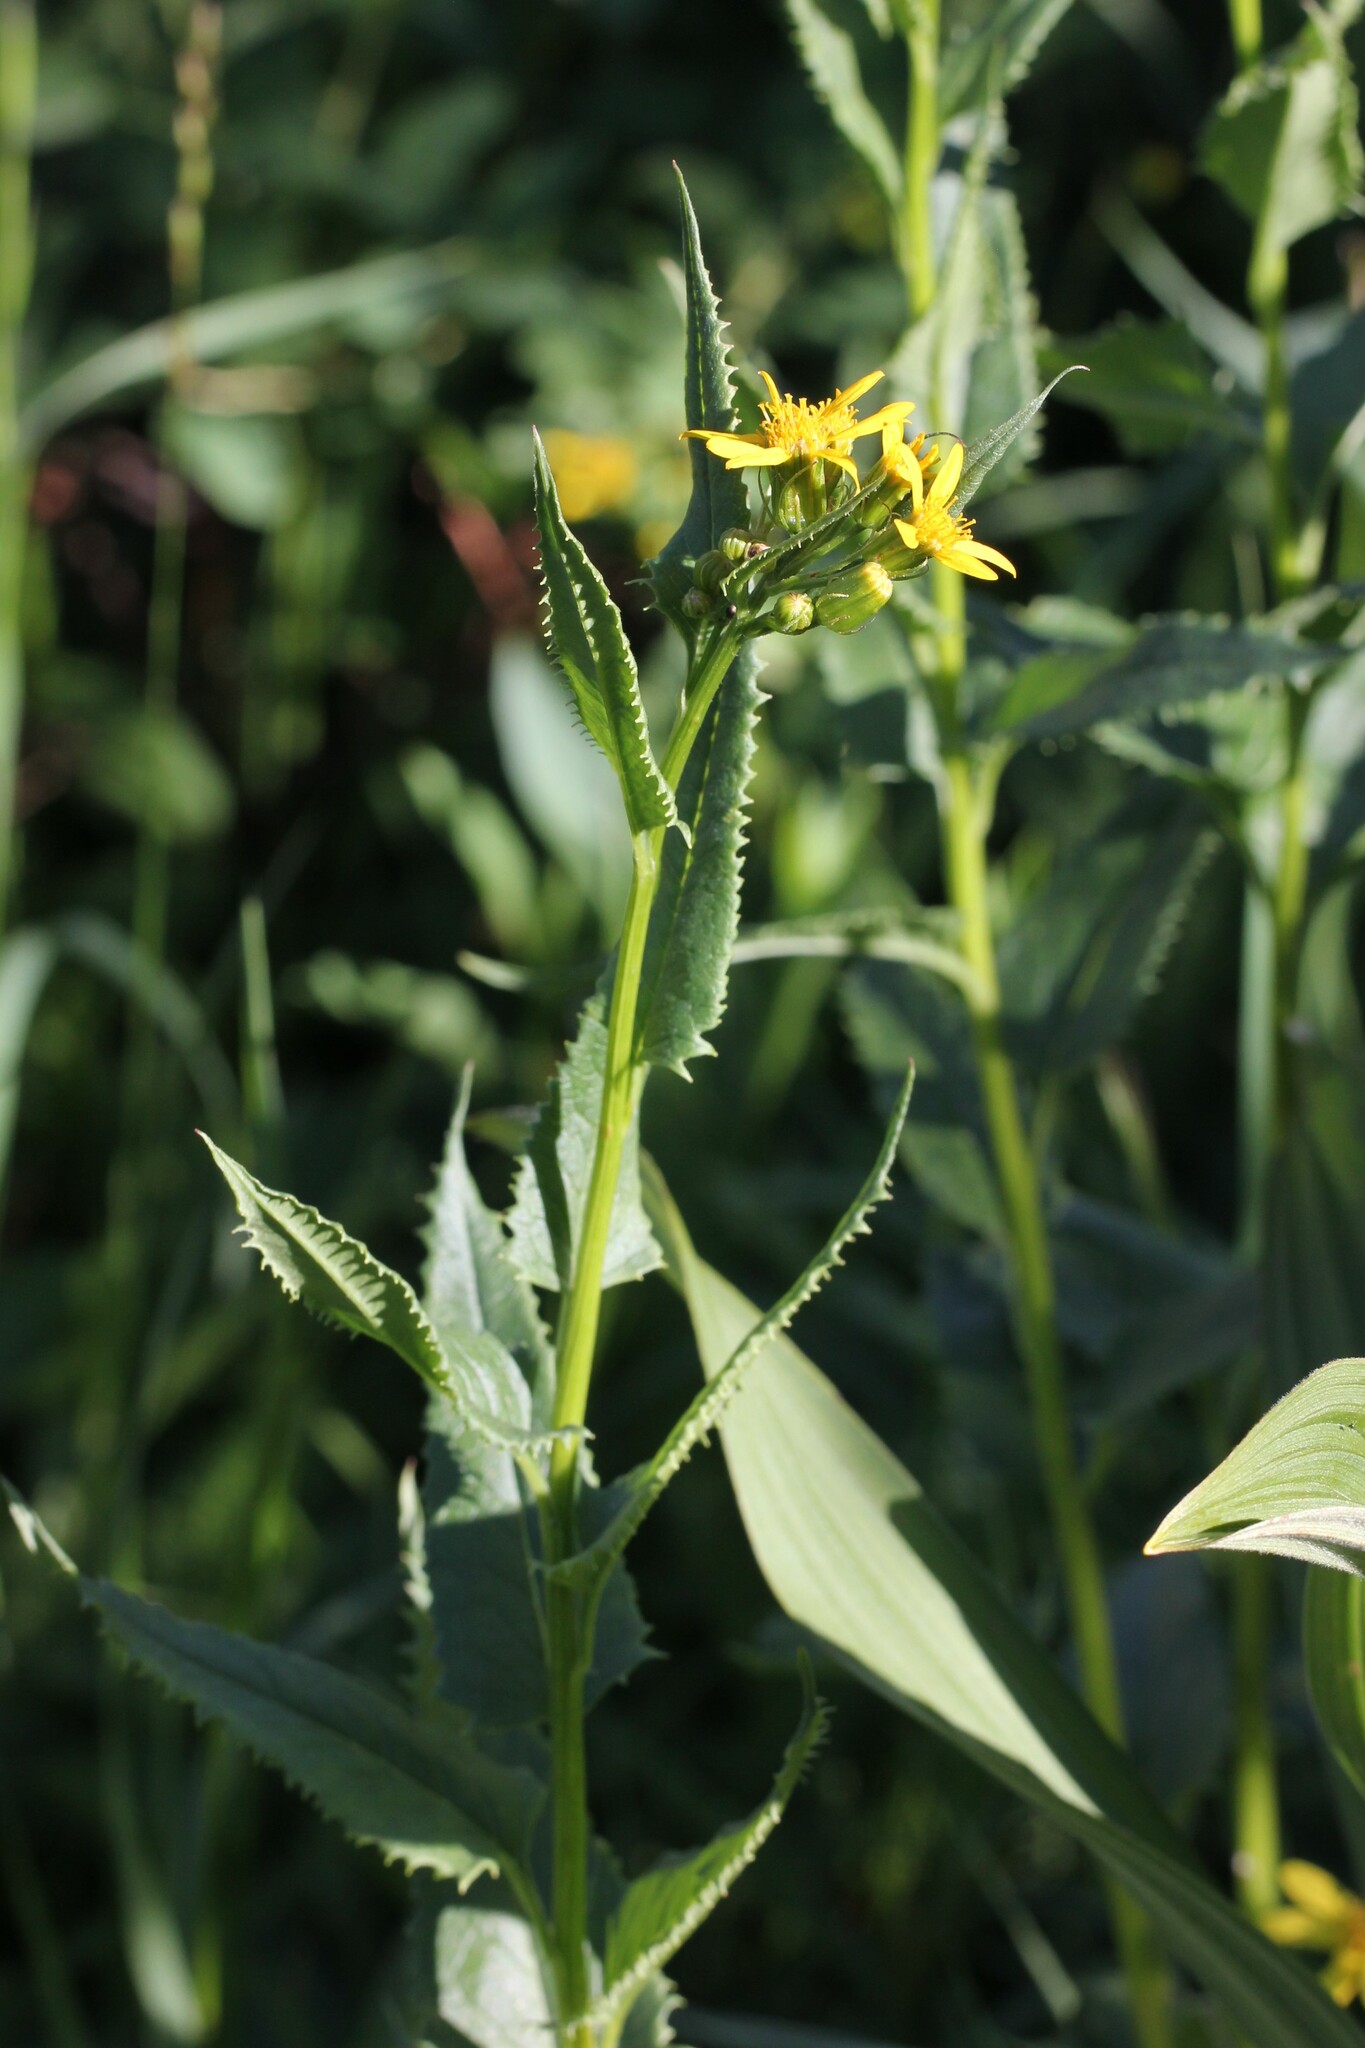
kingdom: Plantae
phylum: Tracheophyta
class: Magnoliopsida
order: Asterales
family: Asteraceae
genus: Senecio
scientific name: Senecio triangularis
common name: Arrowleaf butterweed
